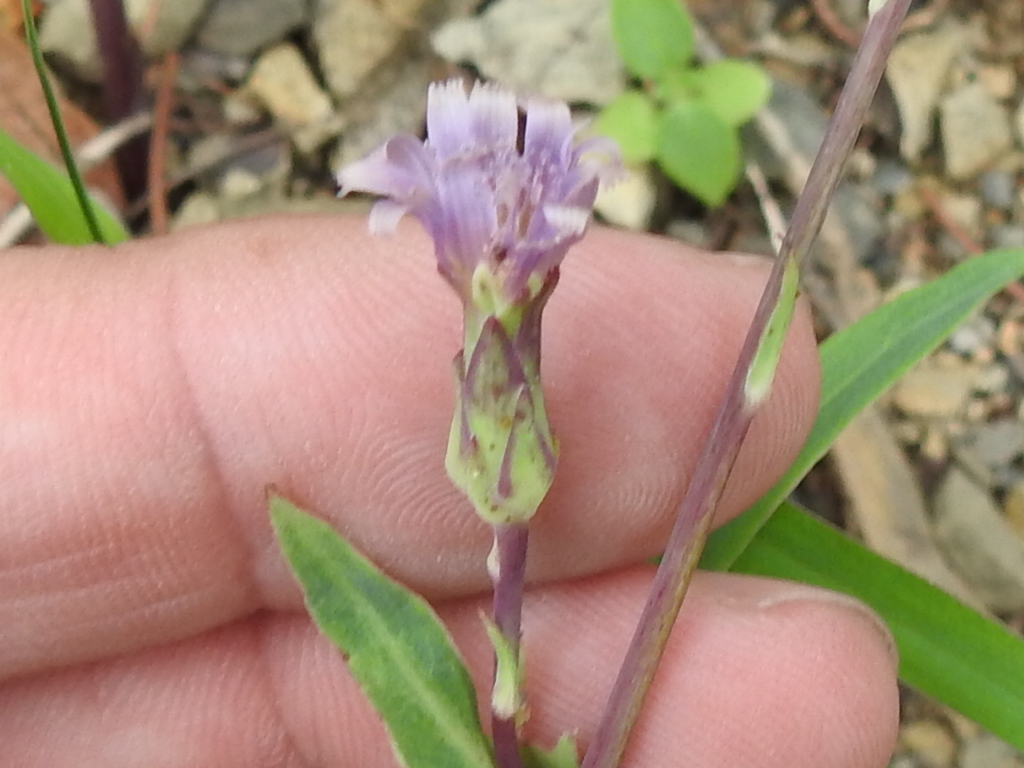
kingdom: Plantae
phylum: Tracheophyta
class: Magnoliopsida
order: Asterales
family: Asteraceae
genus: Lactuca
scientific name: Lactuca graminifolia
